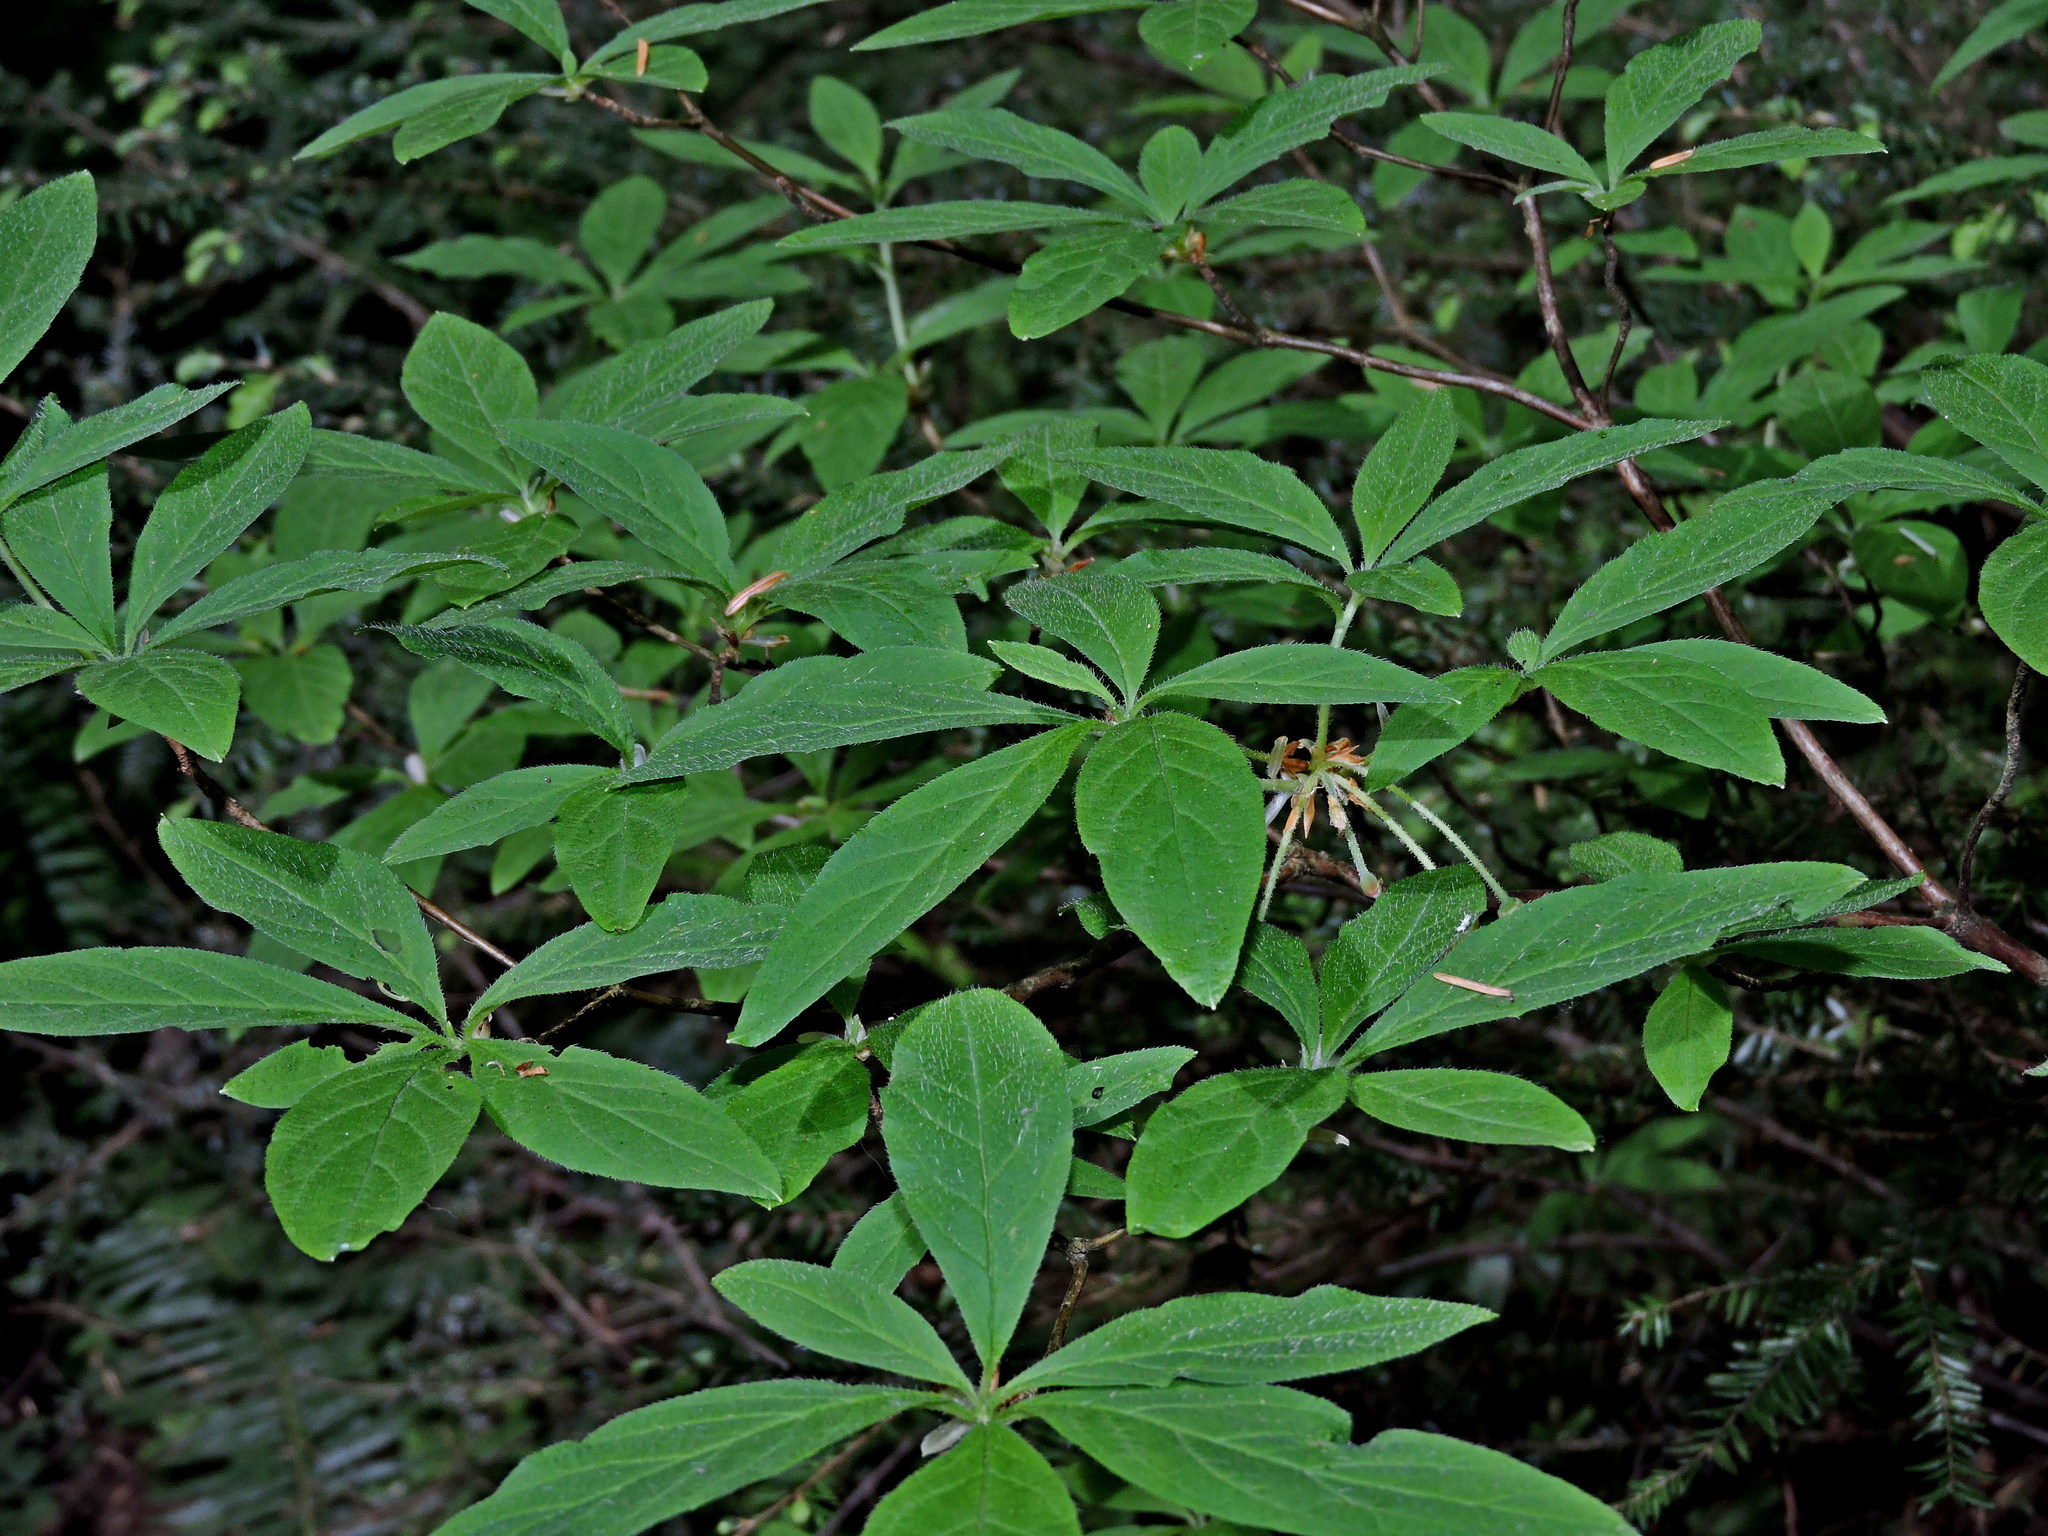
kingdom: Plantae
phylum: Tracheophyta
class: Magnoliopsida
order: Ericales
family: Ericaceae
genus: Rhododendron
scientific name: Rhododendron menziesii
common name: Pacific menziesia
